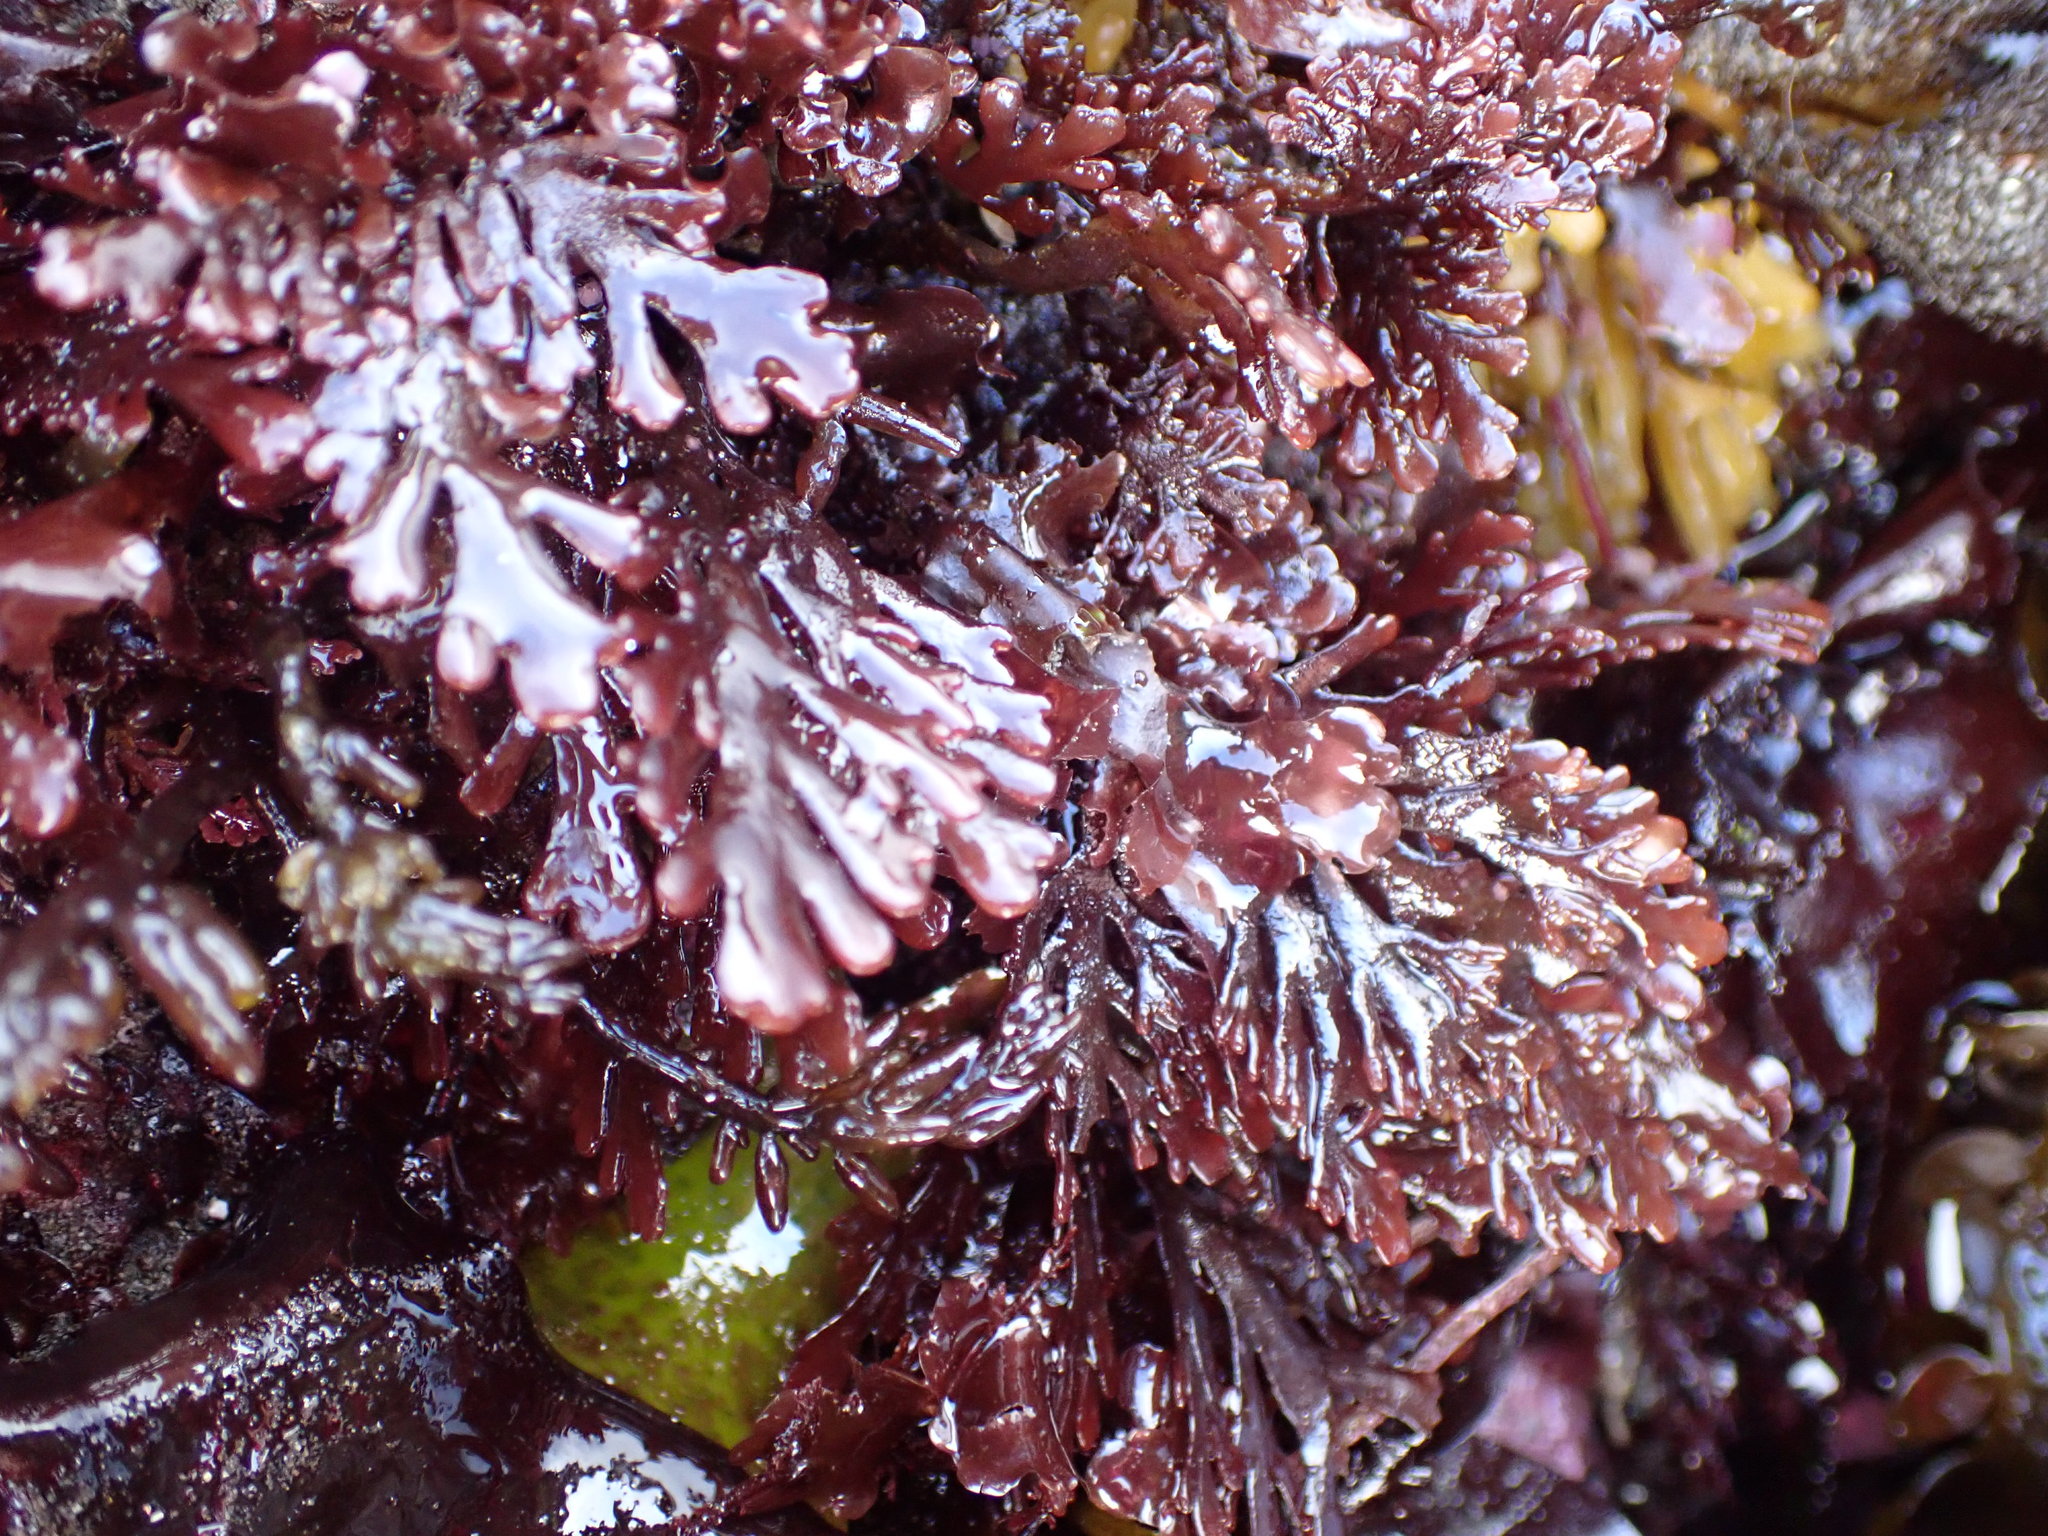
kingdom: Plantae
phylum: Rhodophyta
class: Florideophyceae
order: Ceramiales
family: Rhodomelaceae
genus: Osmundea
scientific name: Osmundea spectabilis
